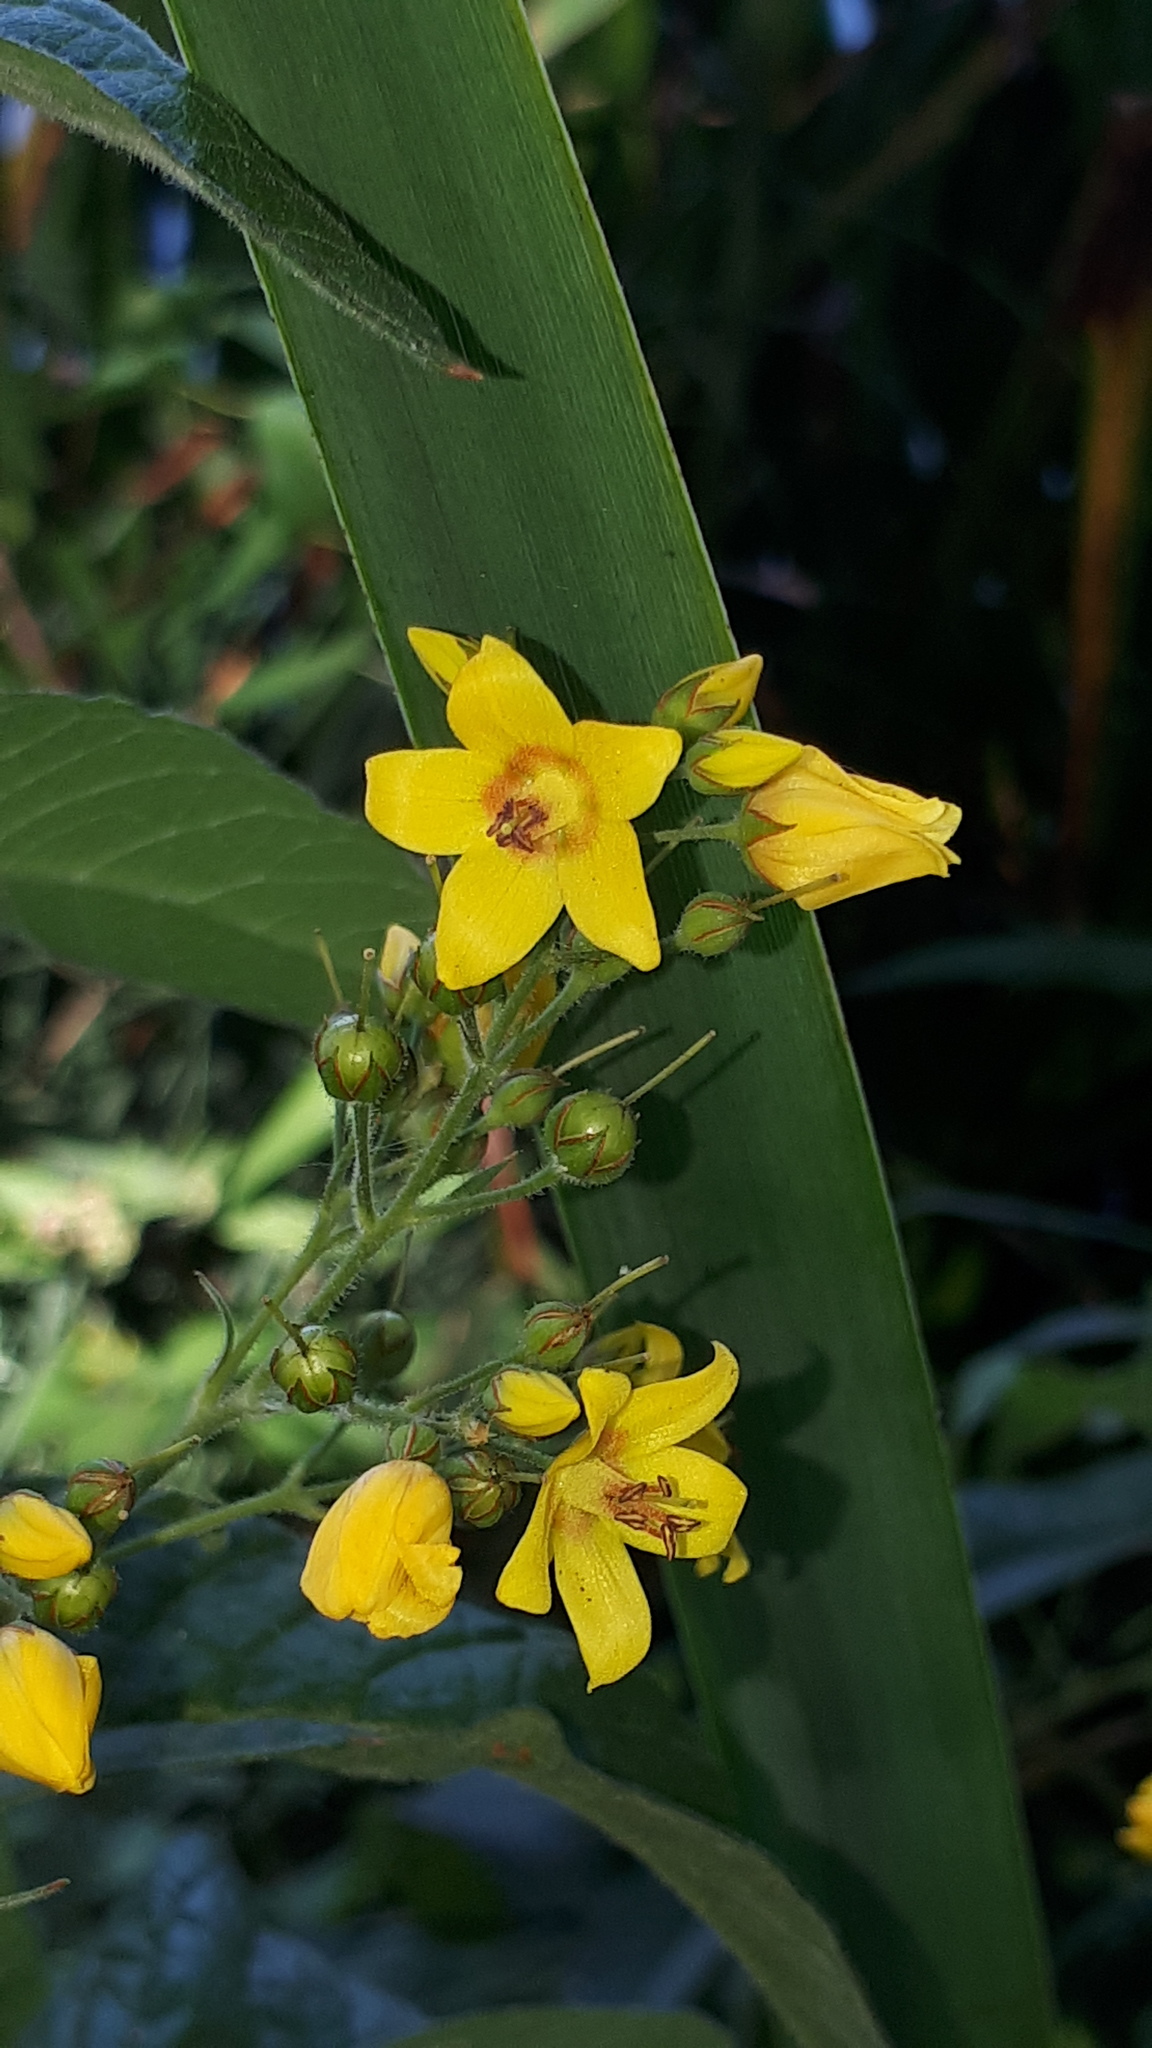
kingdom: Plantae
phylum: Tracheophyta
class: Magnoliopsida
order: Ericales
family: Primulaceae
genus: Lysimachia
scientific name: Lysimachia vulgaris
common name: Yellow loosestrife
